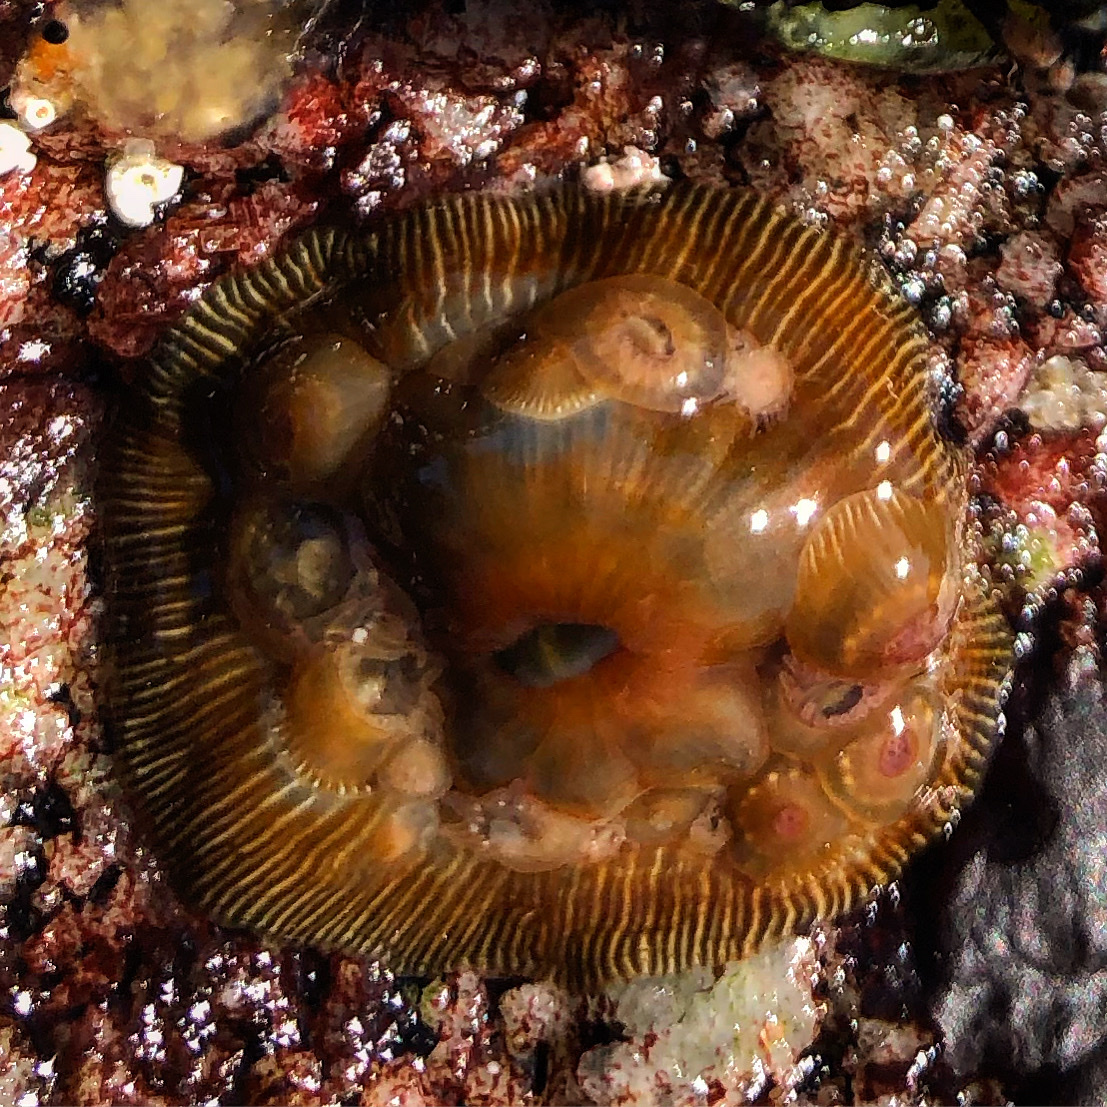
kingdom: Animalia
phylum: Cnidaria
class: Anthozoa
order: Actiniaria
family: Actiniidae
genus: Epiactis
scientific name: Epiactis prolifera
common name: Brooding anemone
